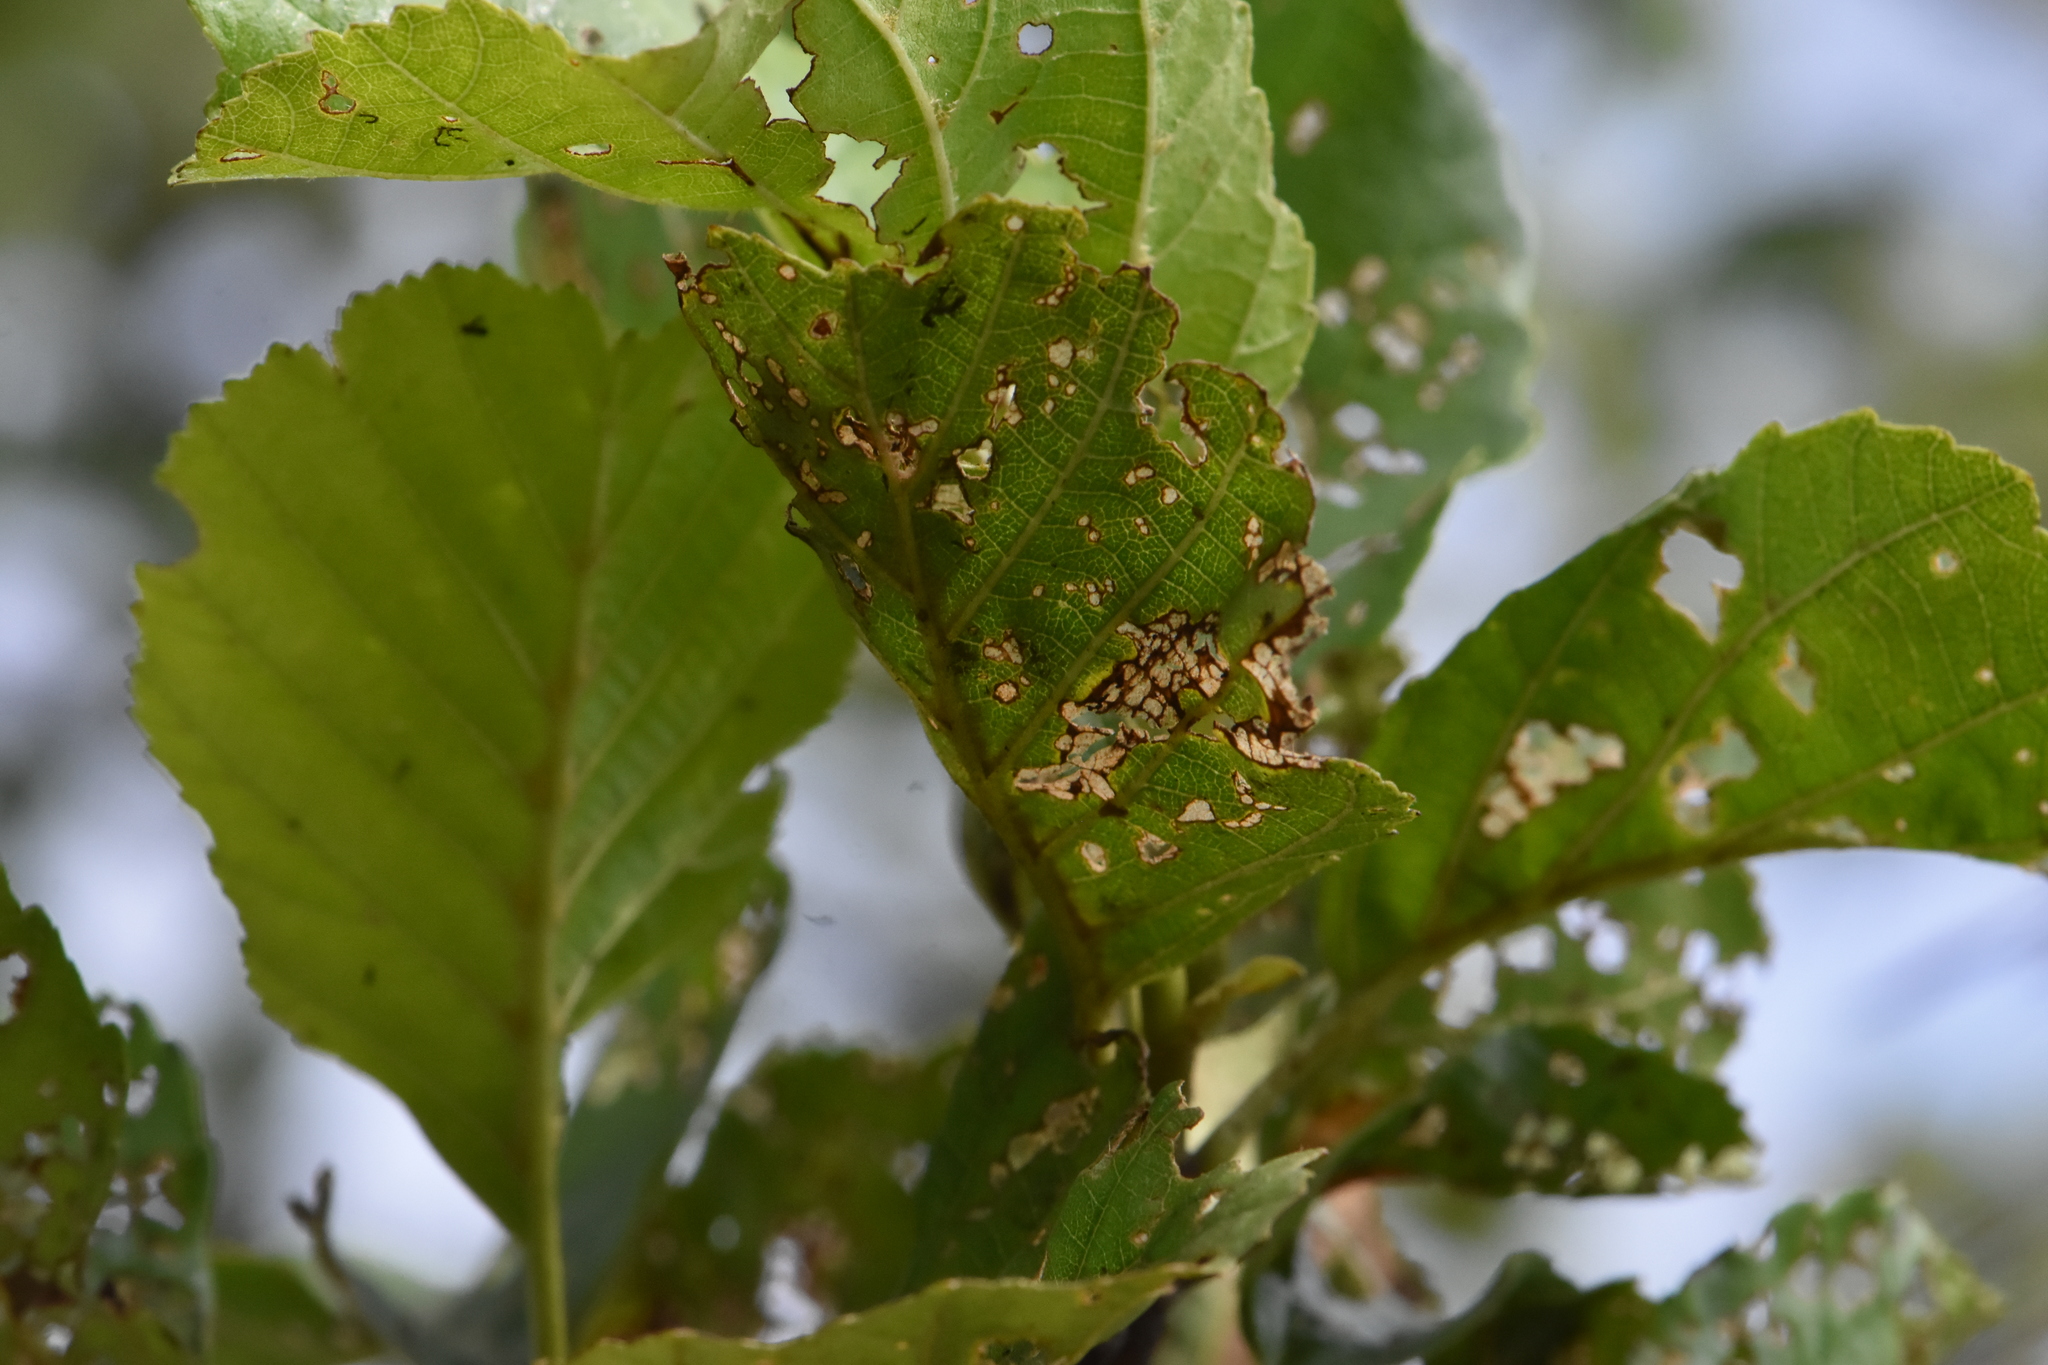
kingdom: Plantae
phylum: Tracheophyta
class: Magnoliopsida
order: Fagales
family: Betulaceae
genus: Alnus
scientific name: Alnus glutinosa
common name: Black alder
